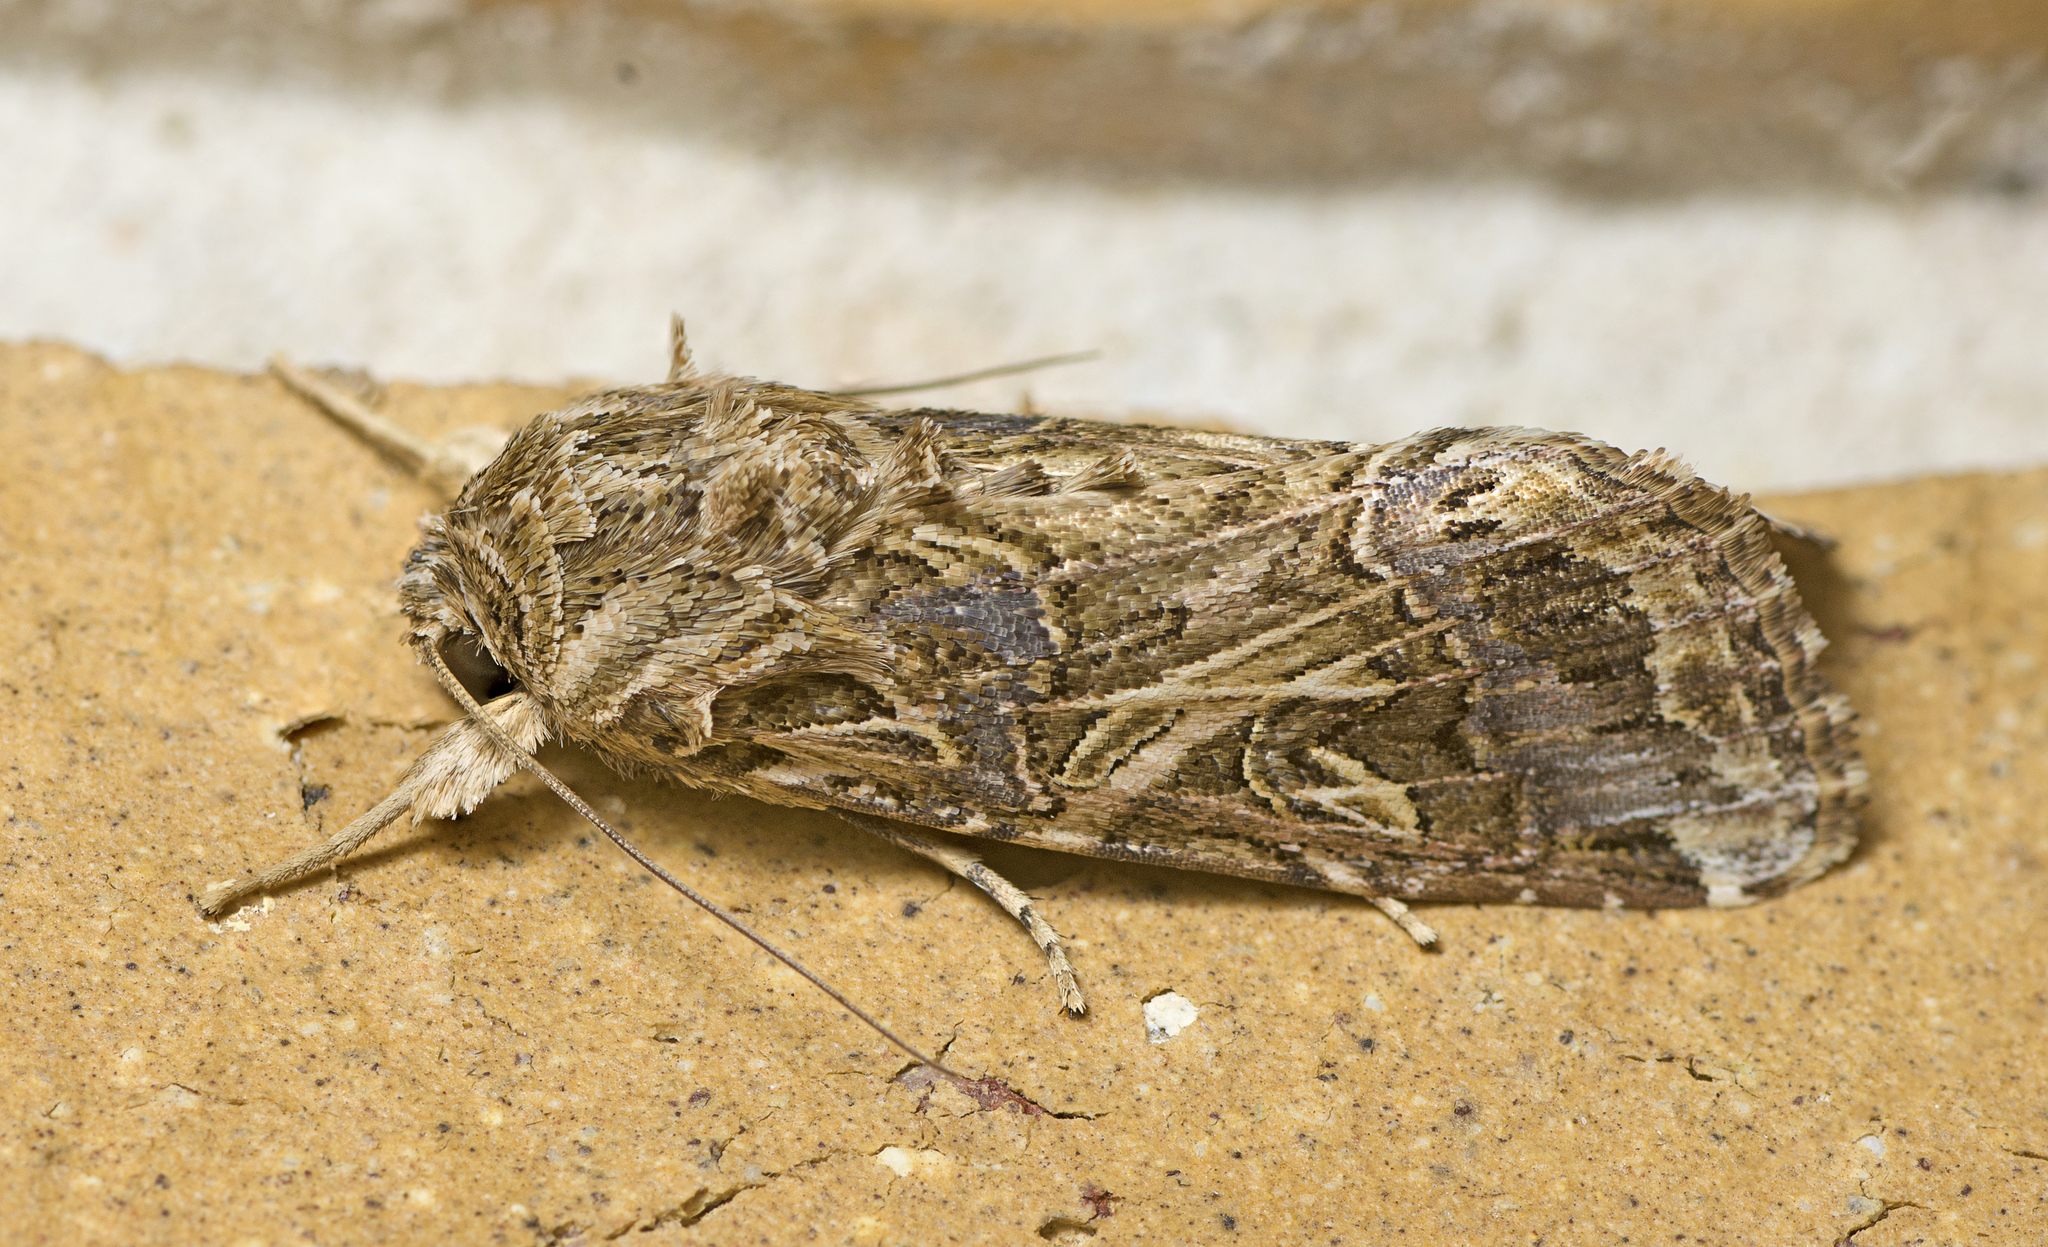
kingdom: Animalia
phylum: Arthropoda
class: Insecta
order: Lepidoptera
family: Noctuidae
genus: Spodoptera
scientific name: Spodoptera litura
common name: Asian cotton leafworm
